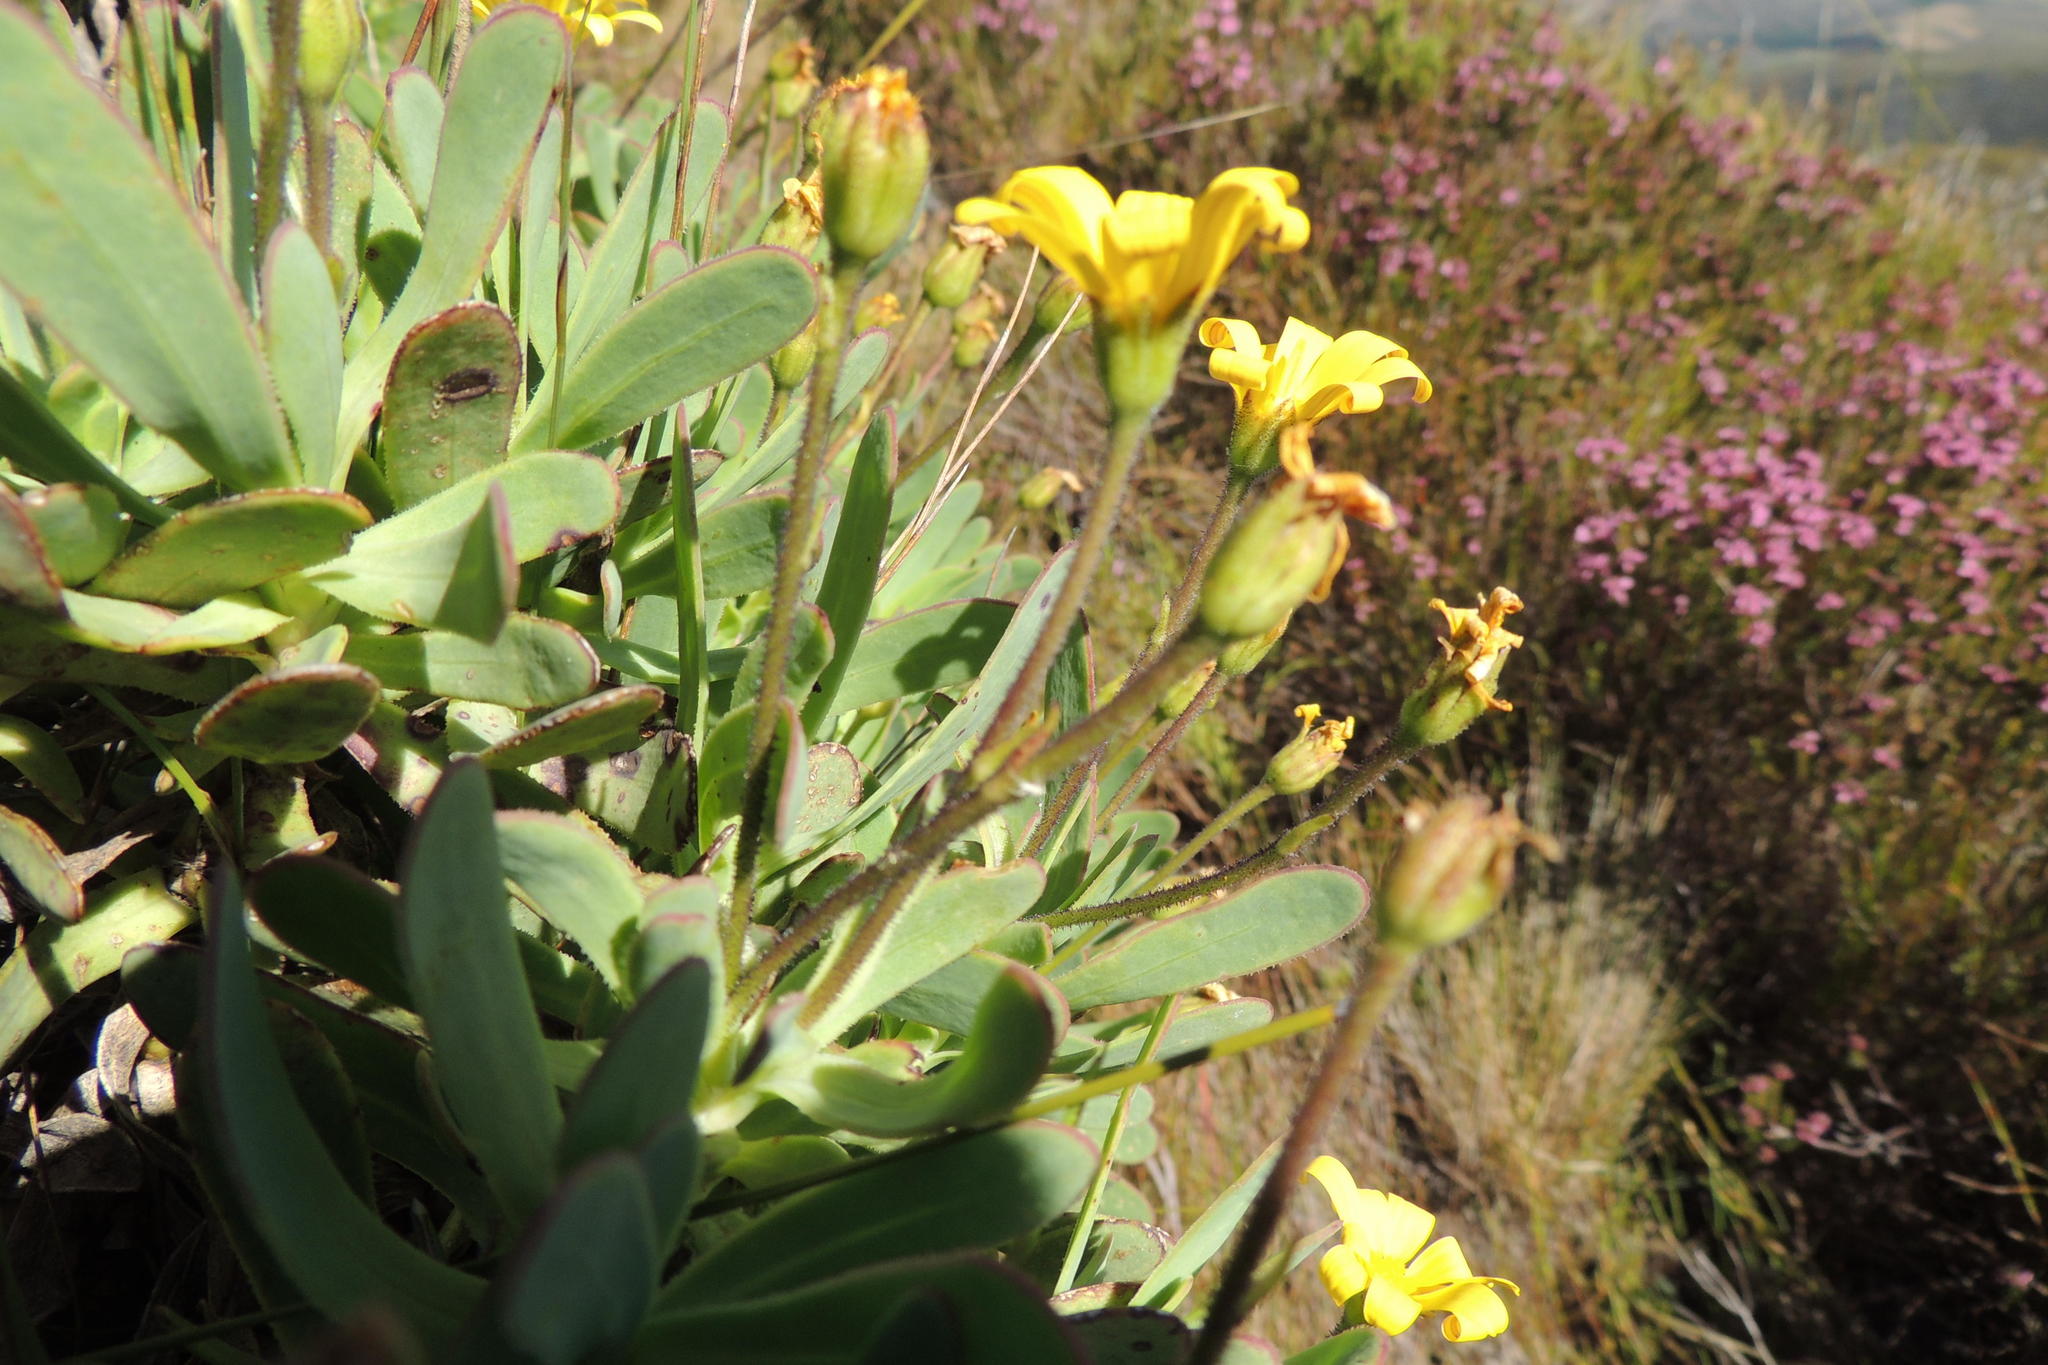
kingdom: Plantae
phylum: Tracheophyta
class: Magnoliopsida
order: Asterales
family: Asteraceae
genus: Osteospermum
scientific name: Osteospermum burttianum
